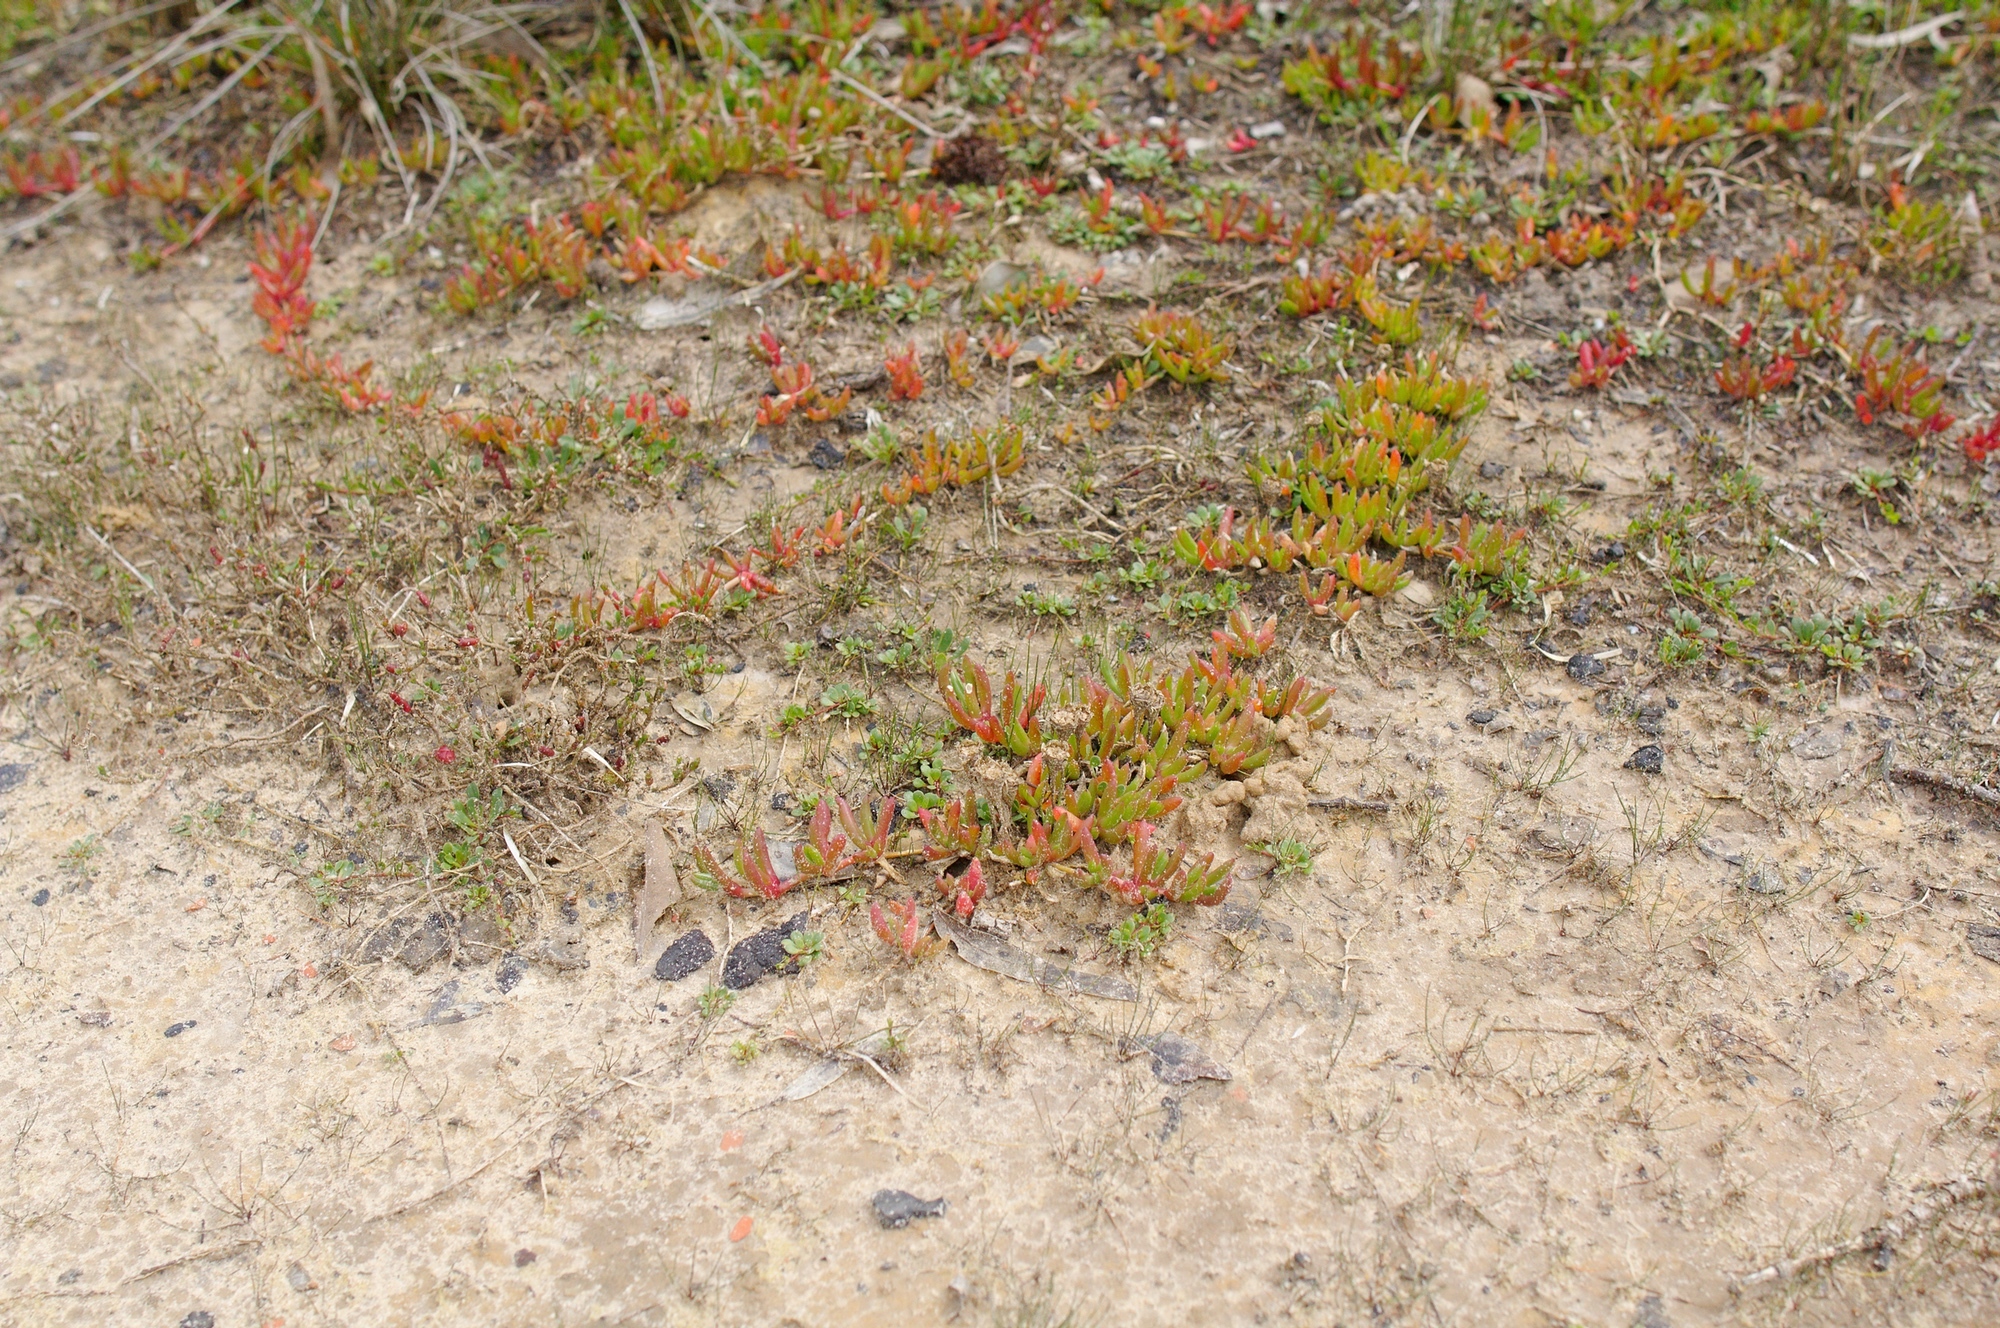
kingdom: Plantae
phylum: Tracheophyta
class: Magnoliopsida
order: Caryophyllales
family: Aizoaceae
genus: Disphyma
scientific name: Disphyma clavellatum
